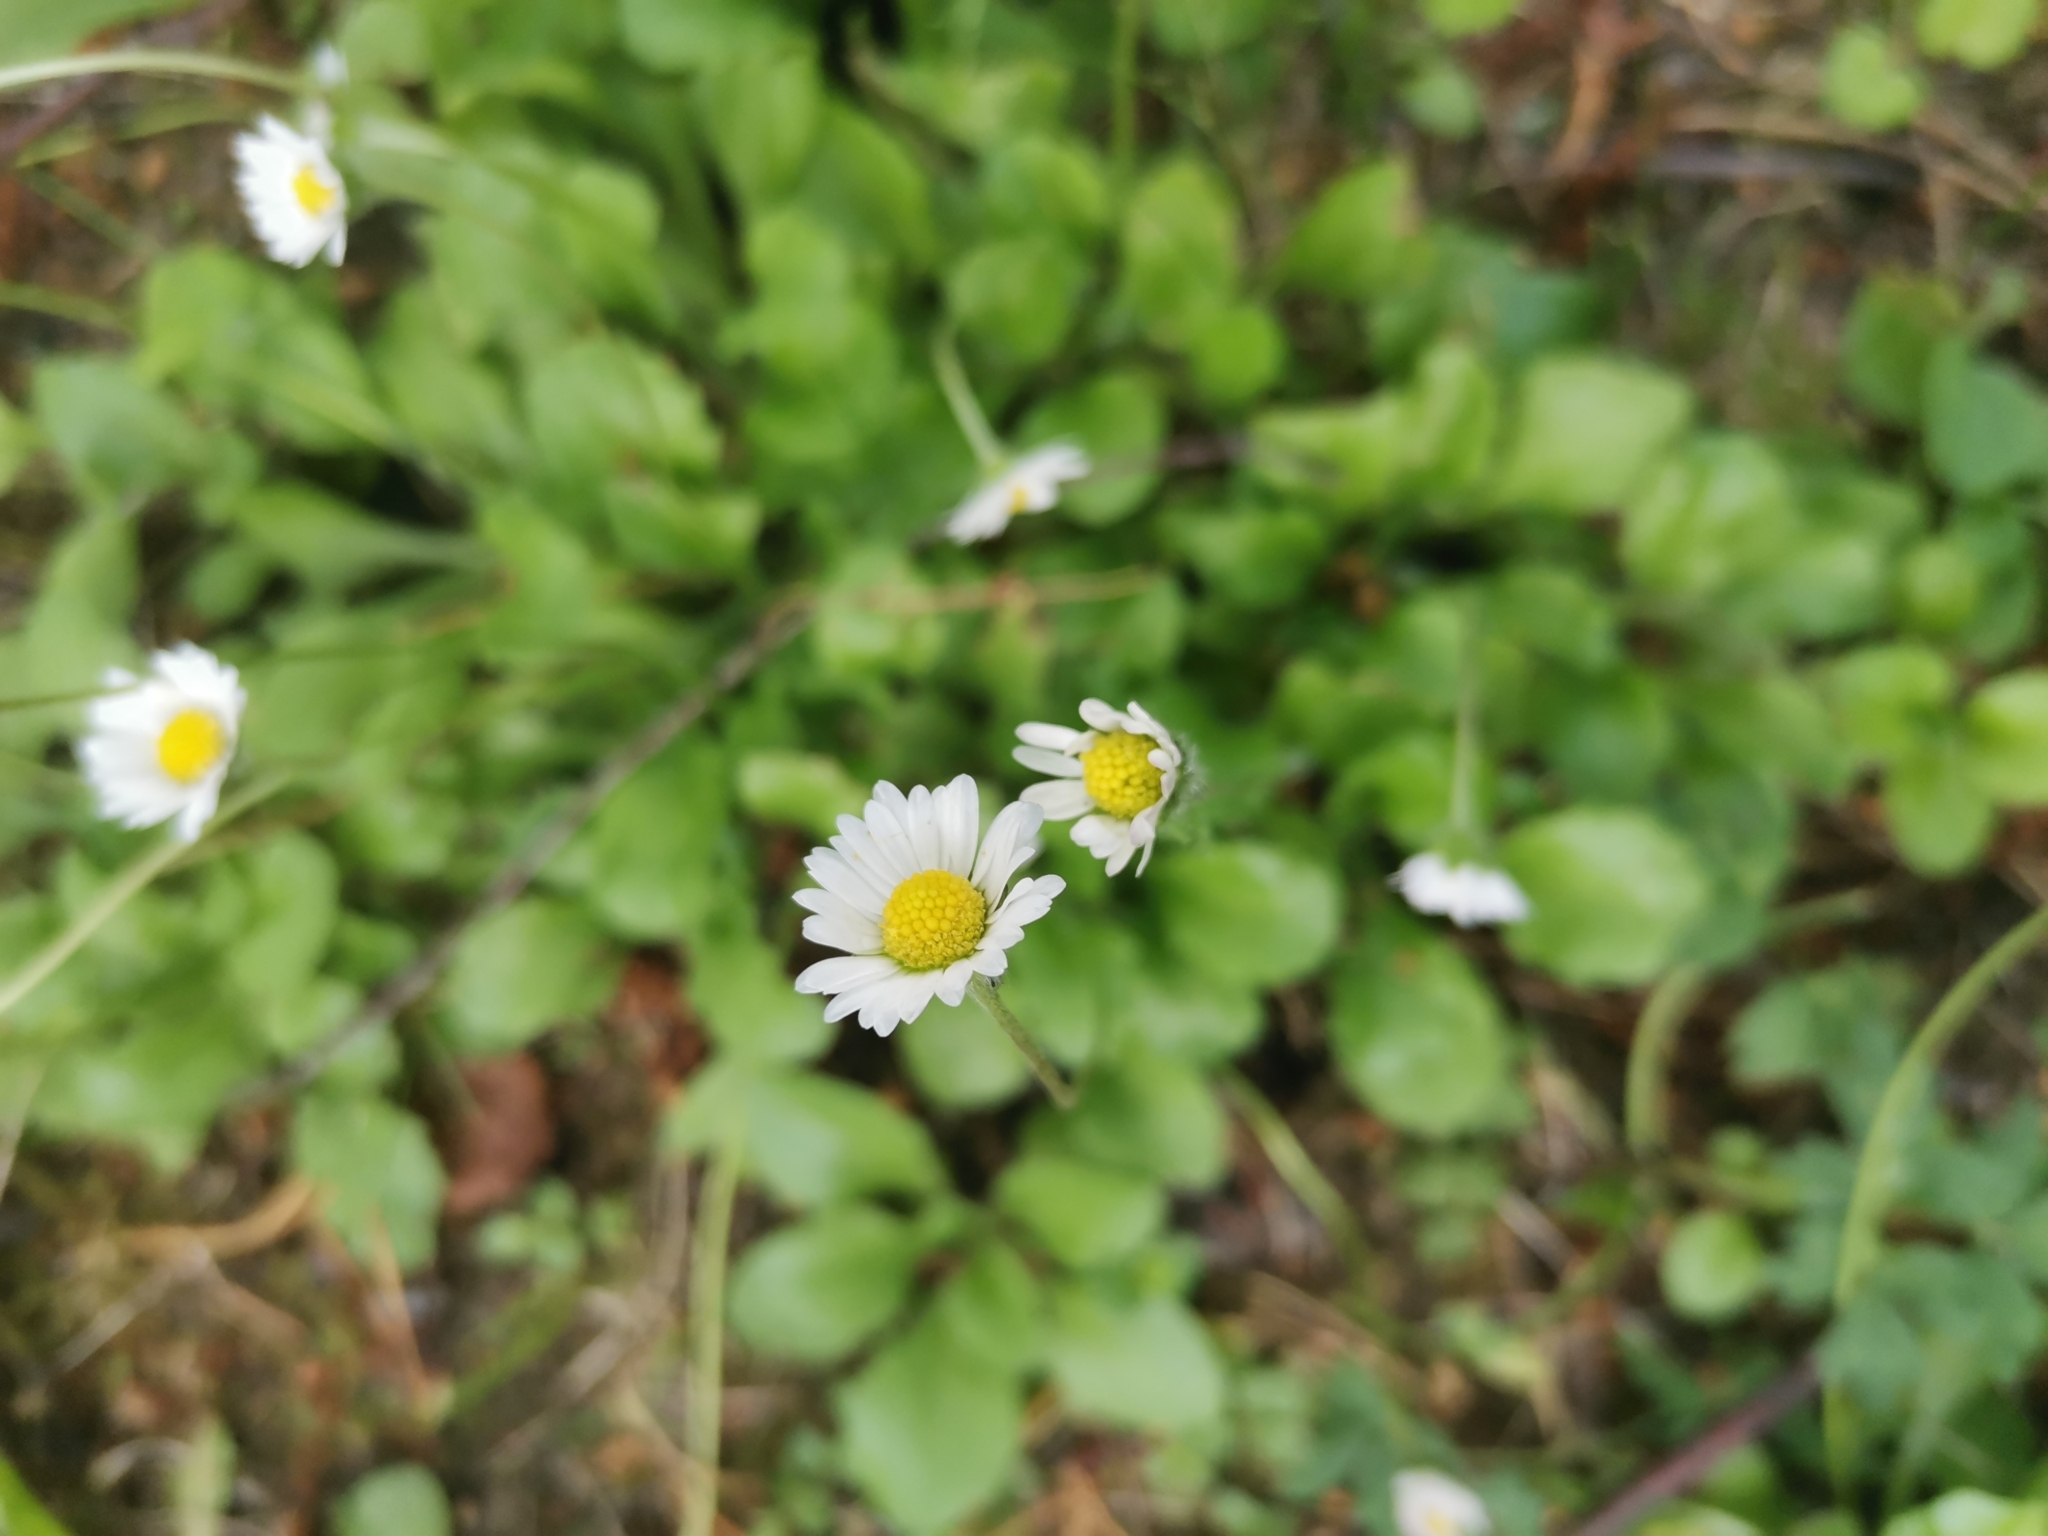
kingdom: Plantae
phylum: Tracheophyta
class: Magnoliopsida
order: Asterales
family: Asteraceae
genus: Bellis
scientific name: Bellis perennis
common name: Lawndaisy
